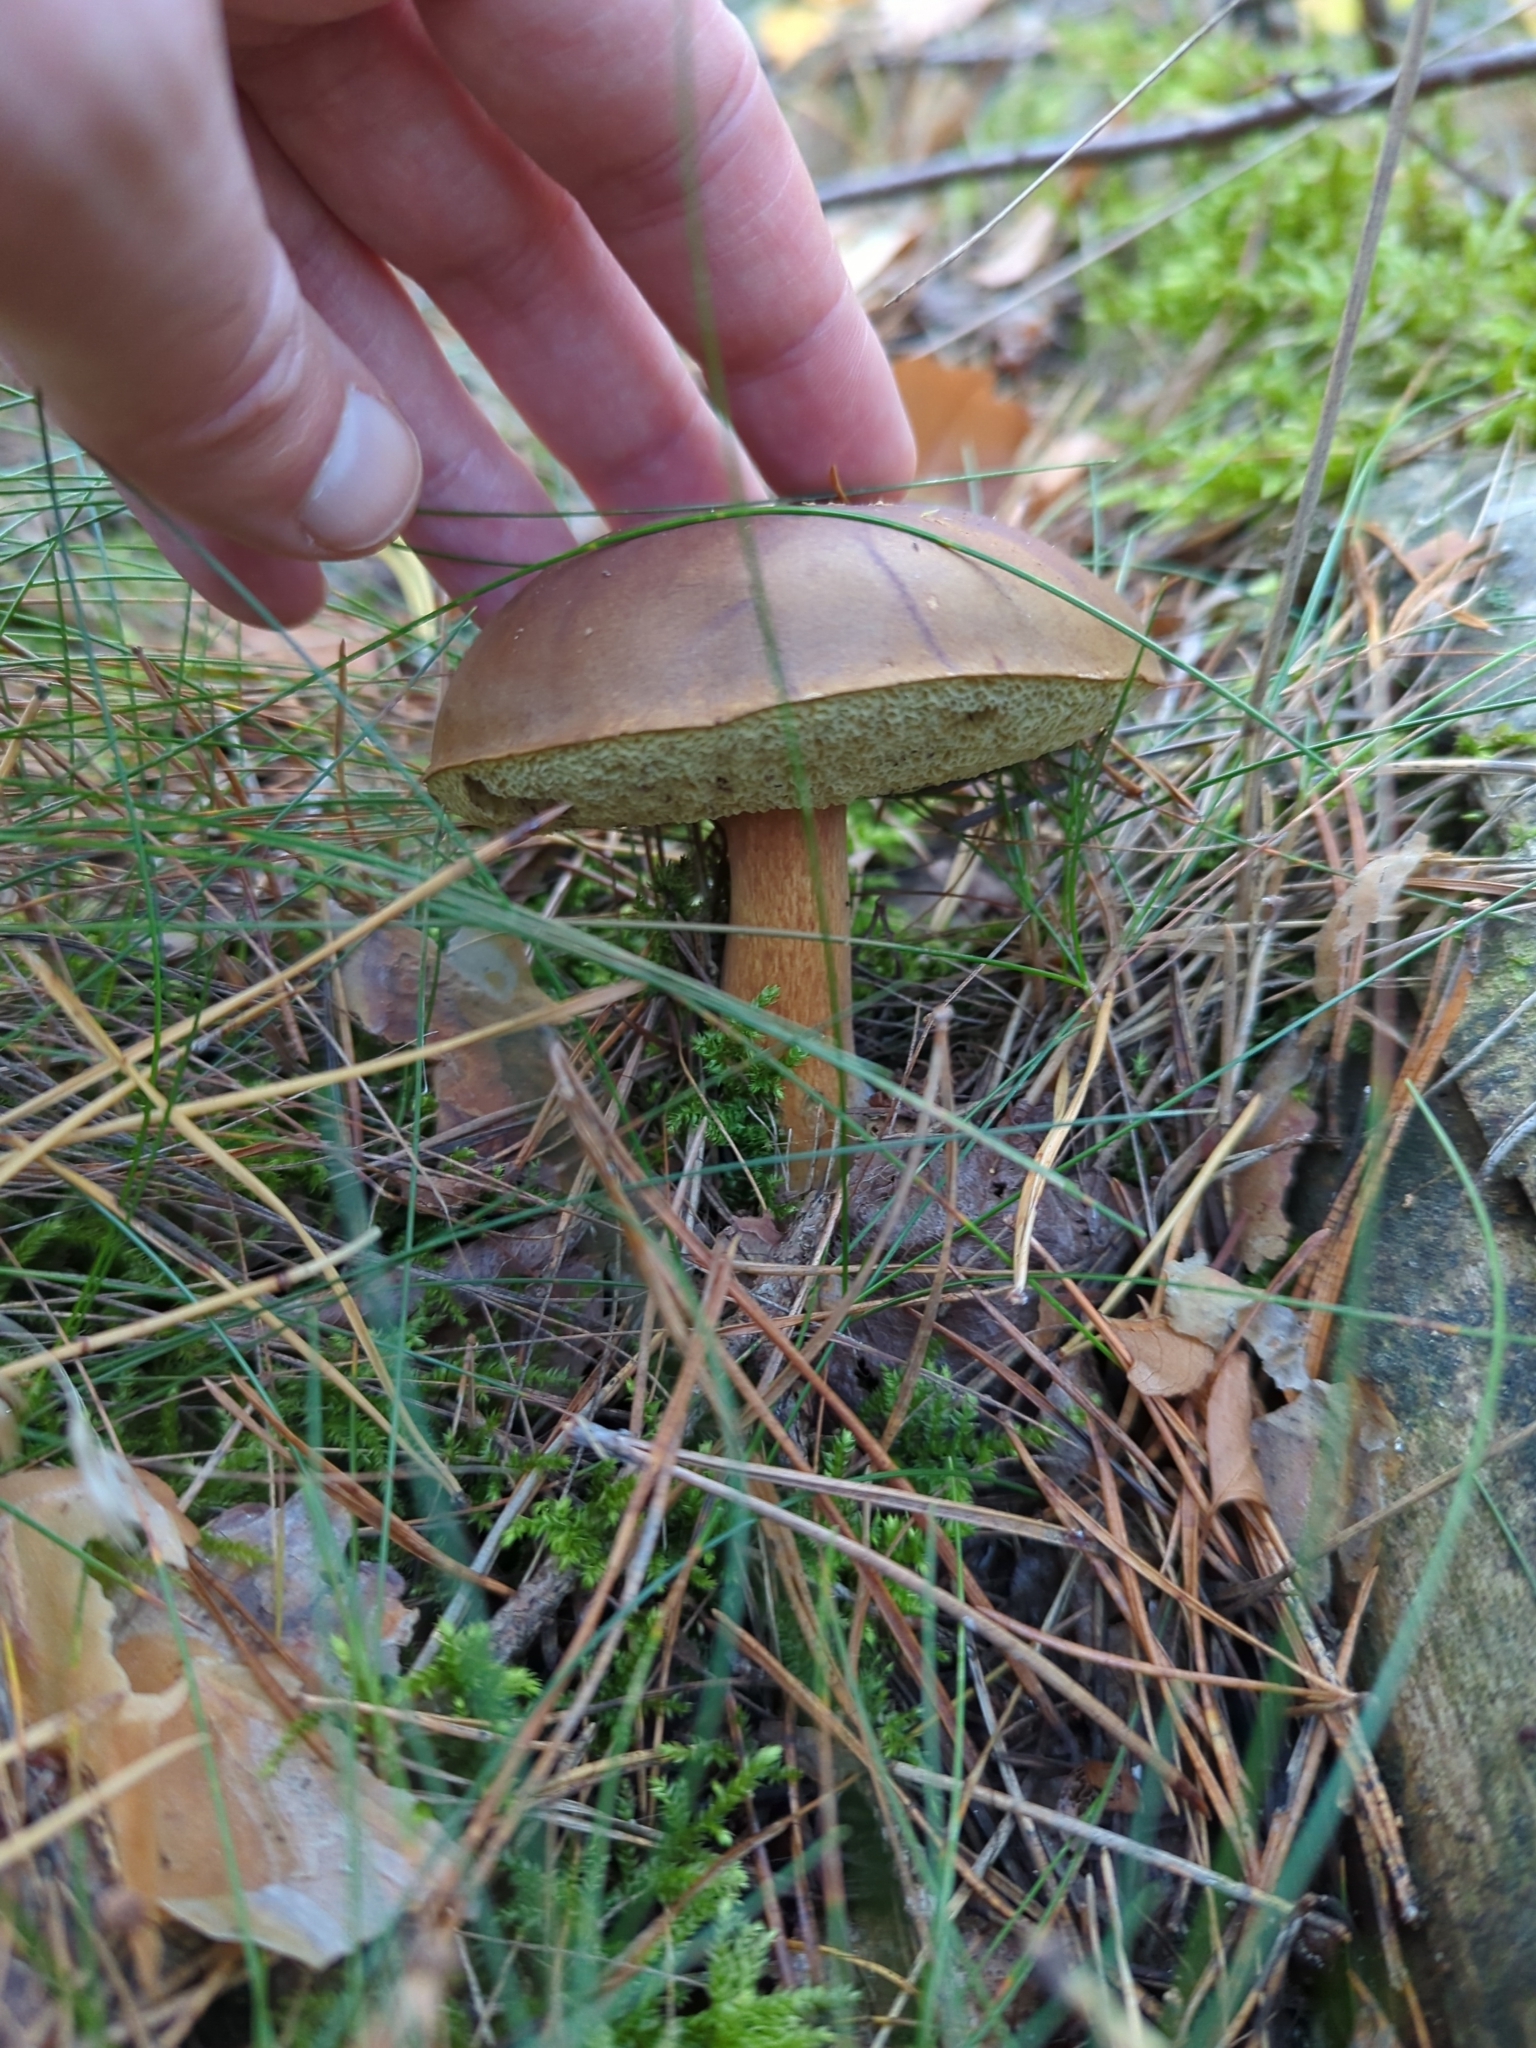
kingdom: Fungi
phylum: Basidiomycota
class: Agaricomycetes
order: Boletales
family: Boletaceae
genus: Imleria
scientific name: Imleria badia
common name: Bay bolete
